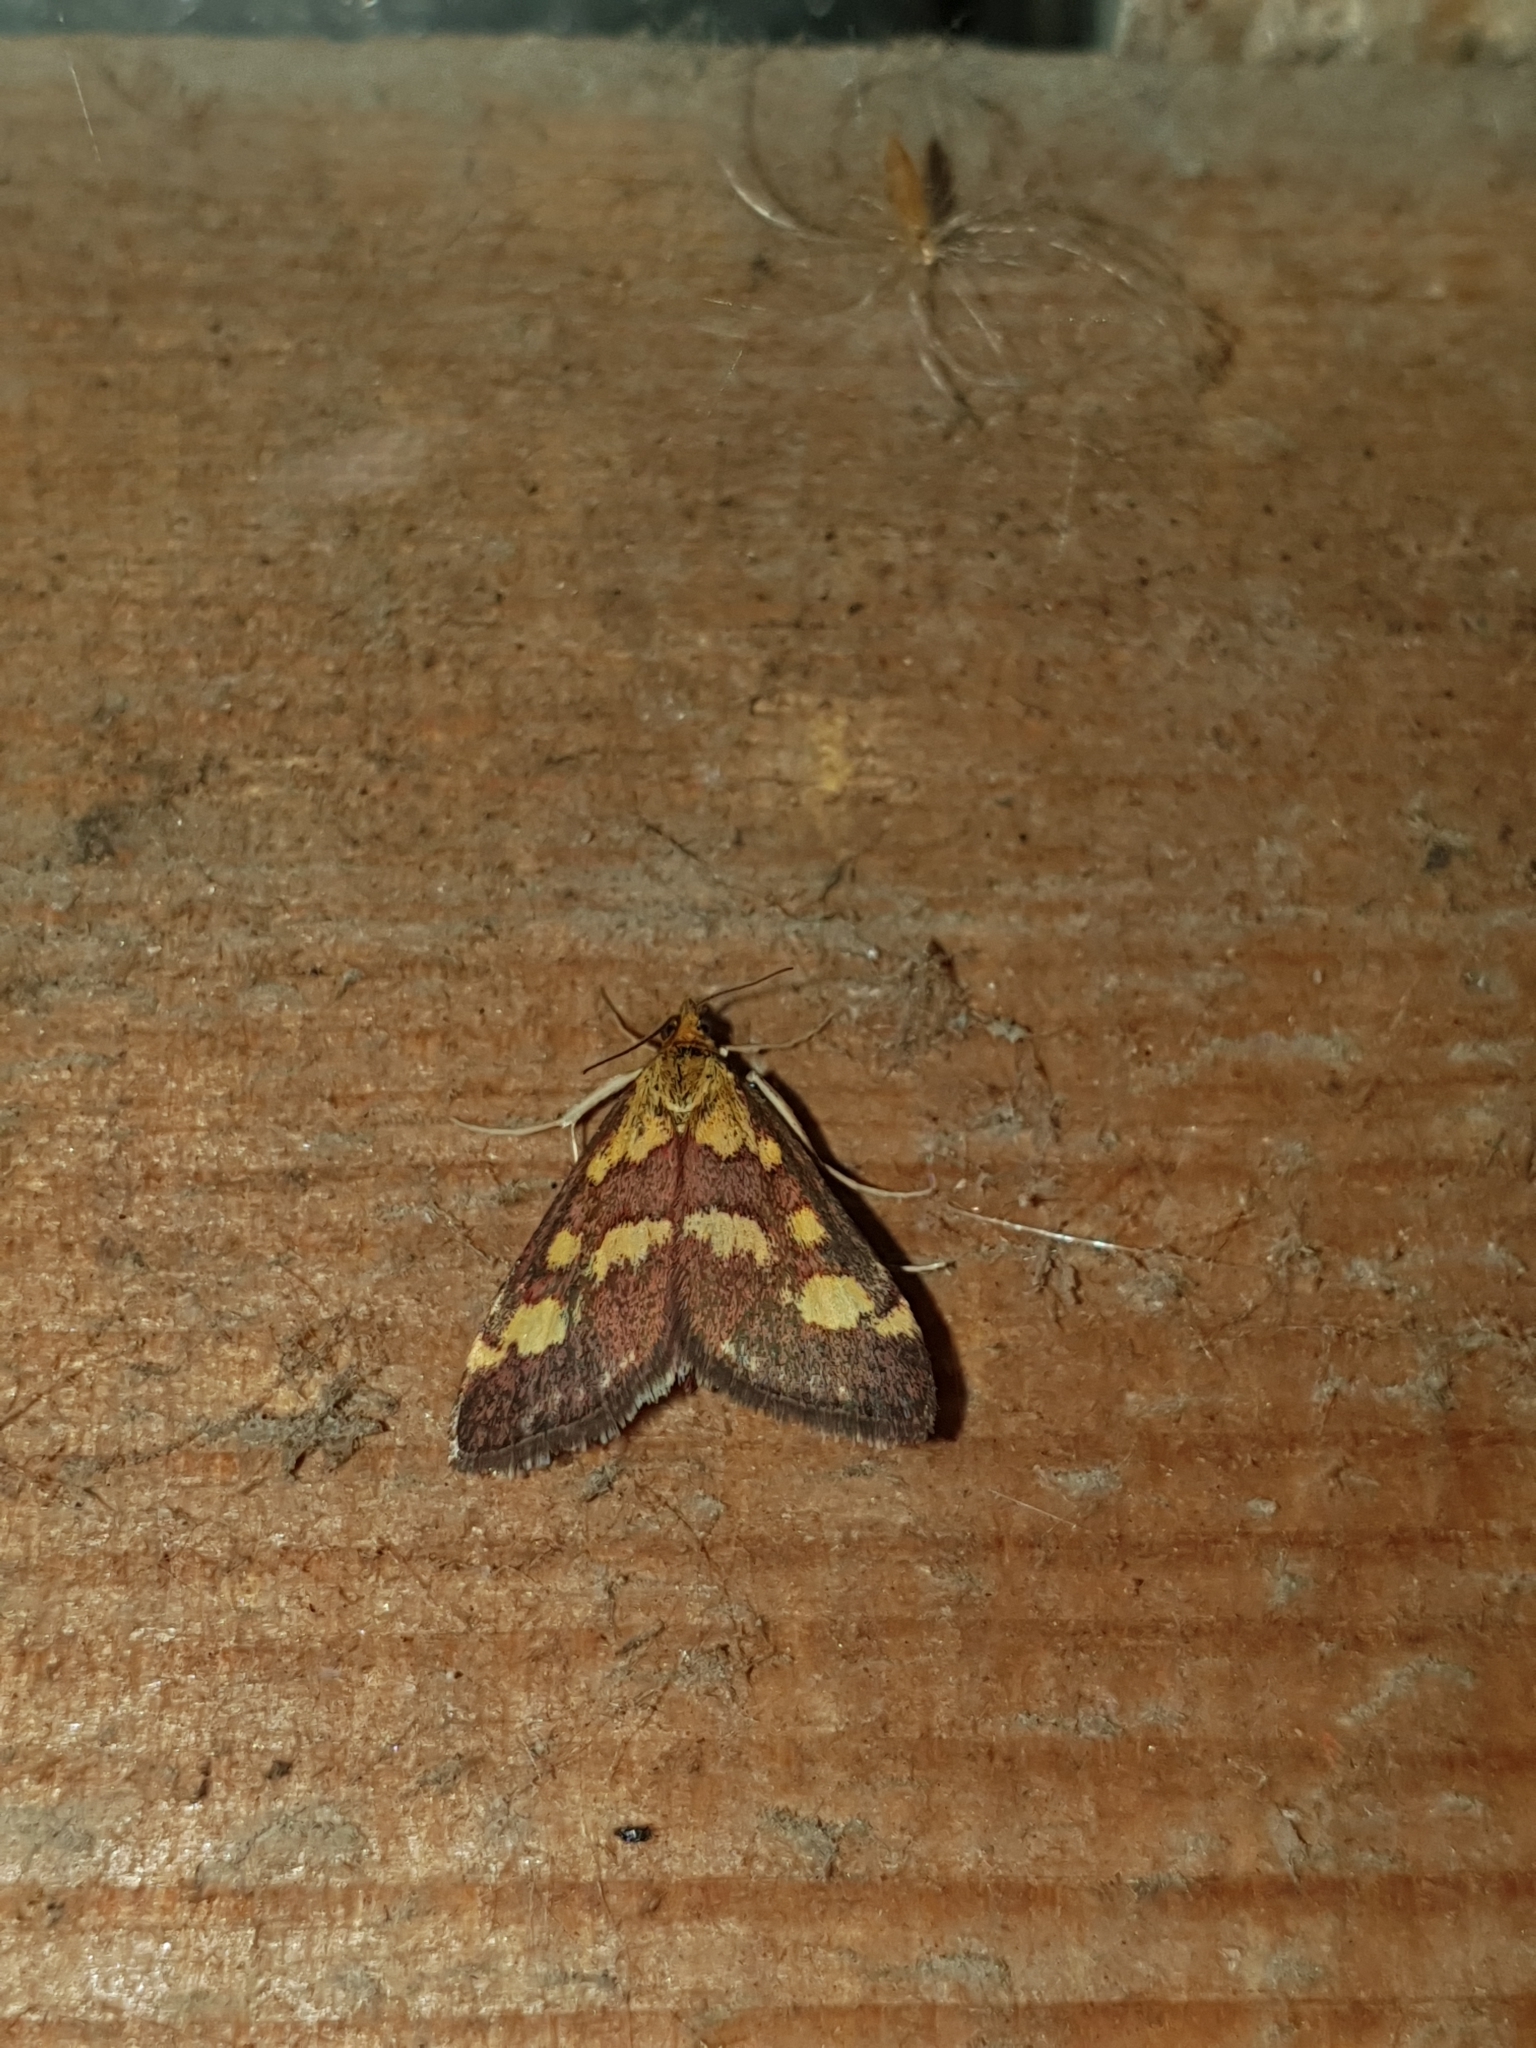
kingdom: Animalia
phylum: Arthropoda
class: Insecta
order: Lepidoptera
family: Crambidae
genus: Pyrausta
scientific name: Pyrausta purpuralis
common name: Common purple & gold
